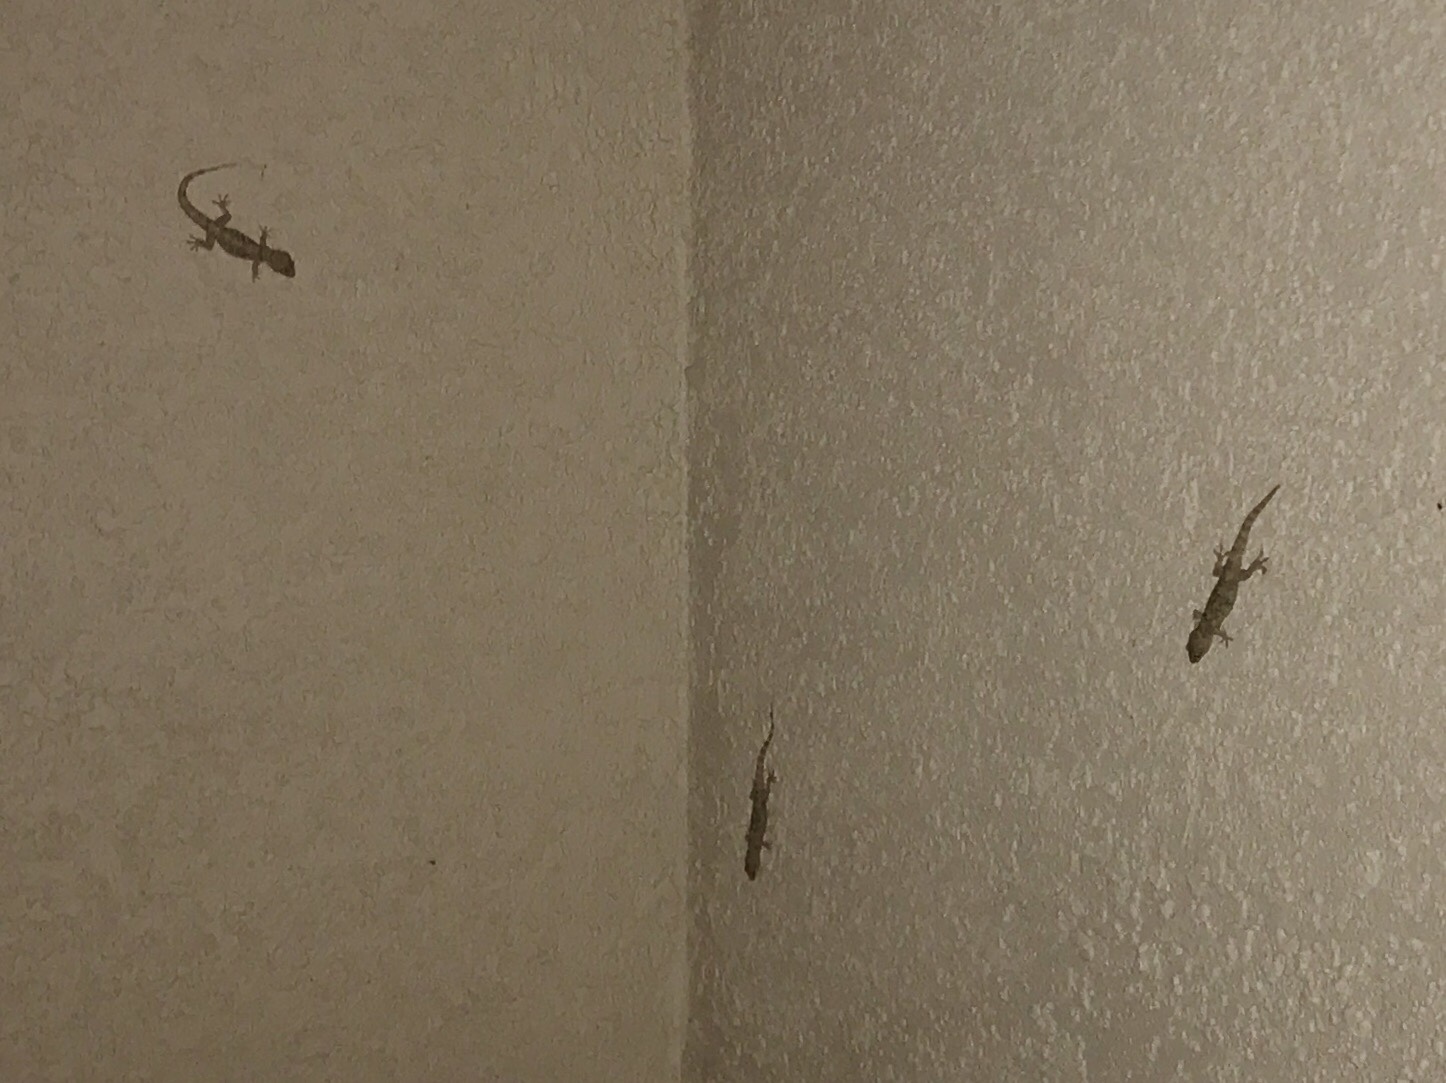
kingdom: Animalia
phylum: Chordata
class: Squamata
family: Gekkonidae
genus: Hemidactylus
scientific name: Hemidactylus turcicus
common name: Turkish gecko
